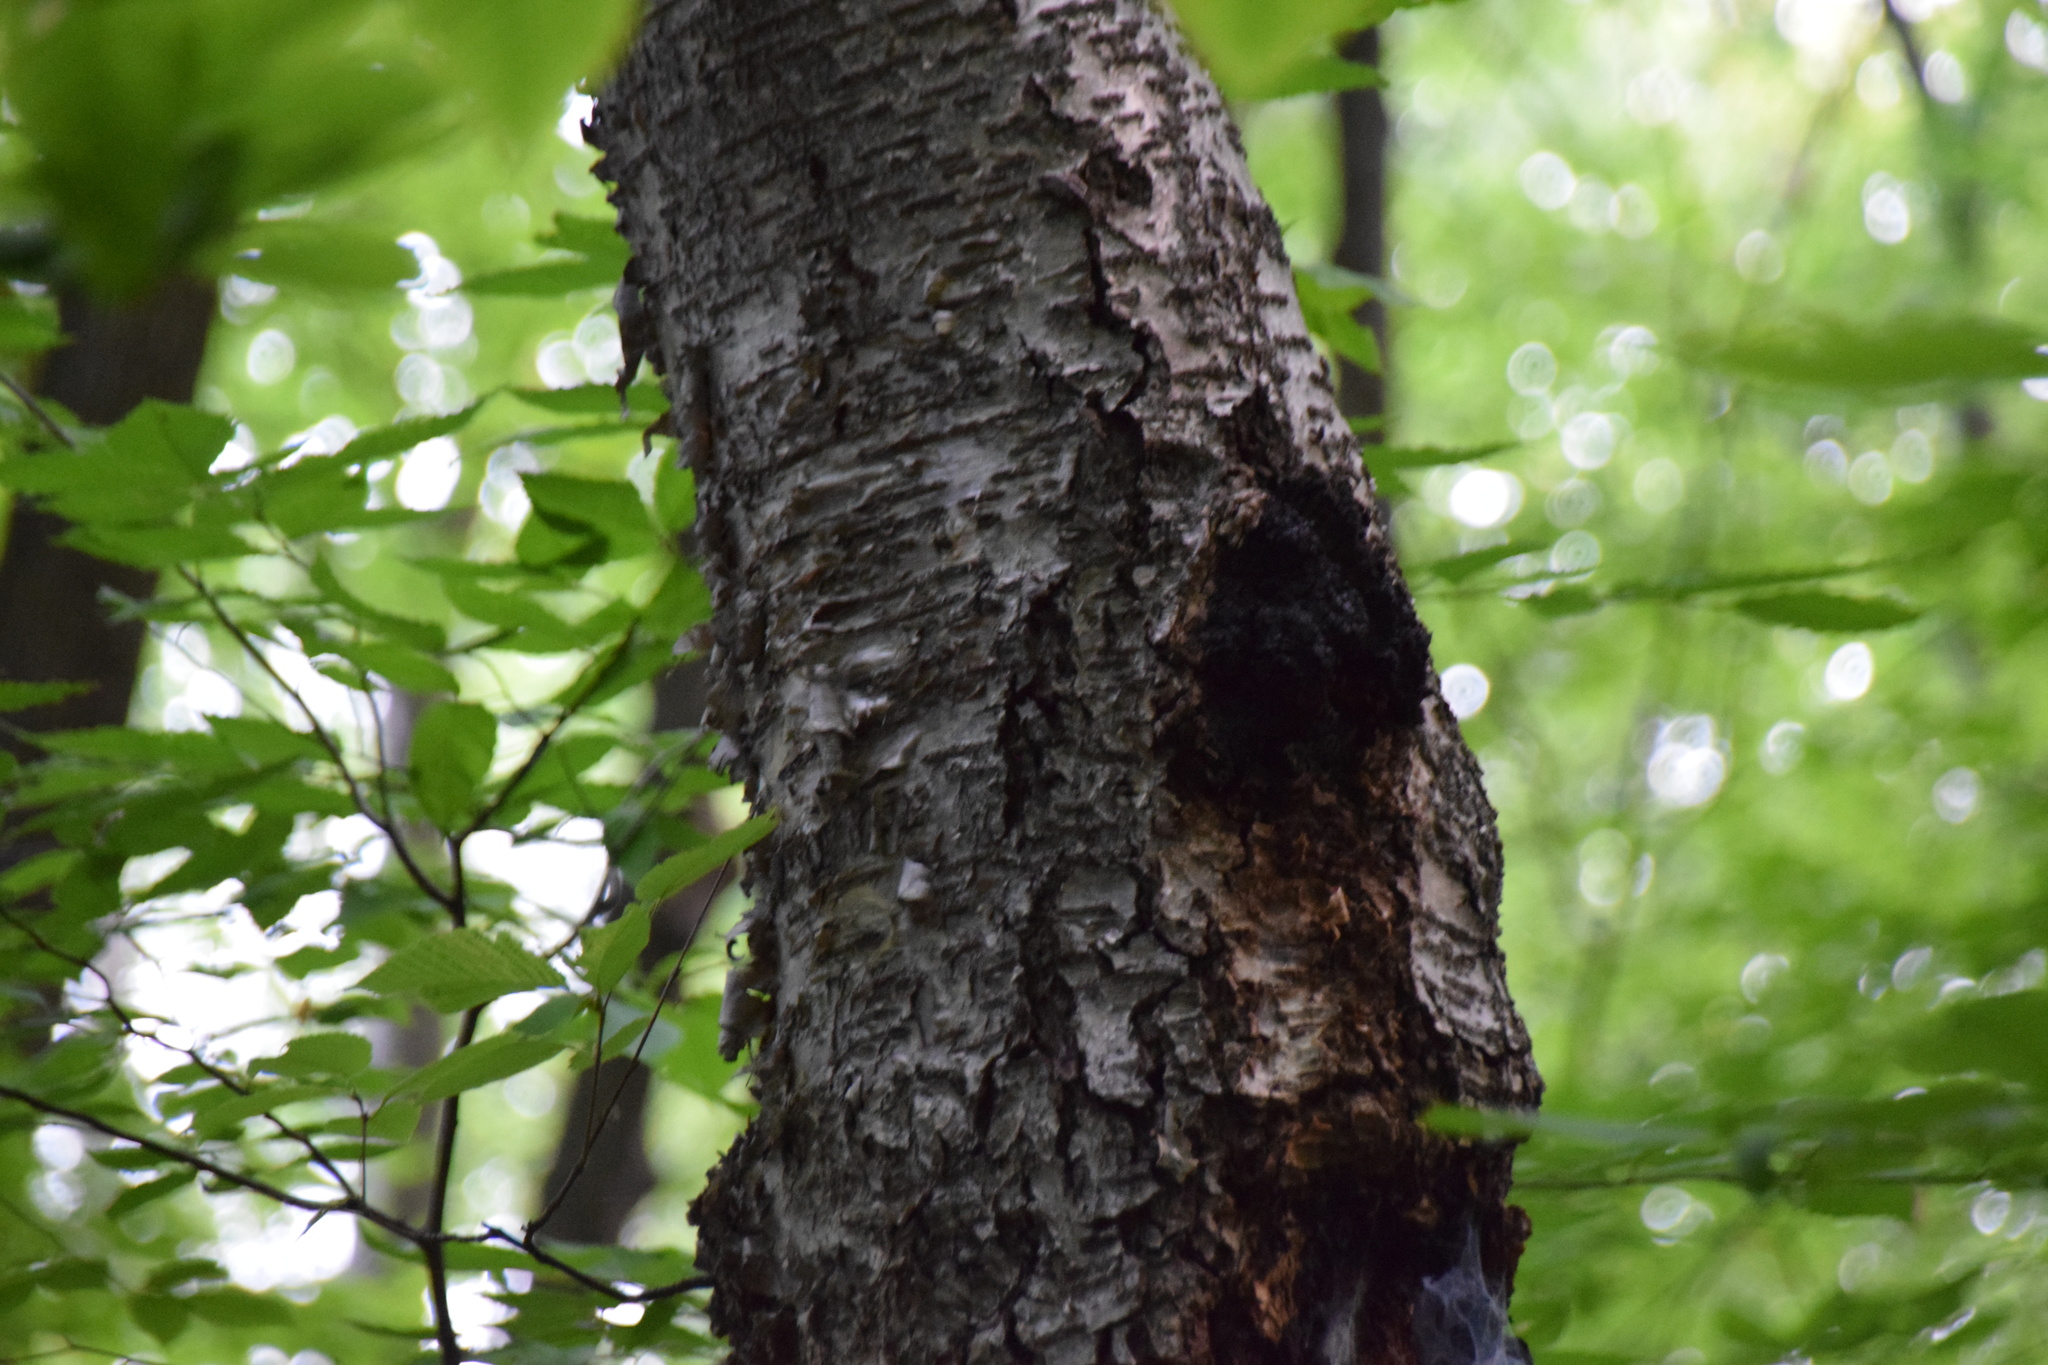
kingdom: Fungi
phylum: Basidiomycota
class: Agaricomycetes
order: Hymenochaetales
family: Hymenochaetaceae
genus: Inonotus
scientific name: Inonotus obliquus
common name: Chaga
